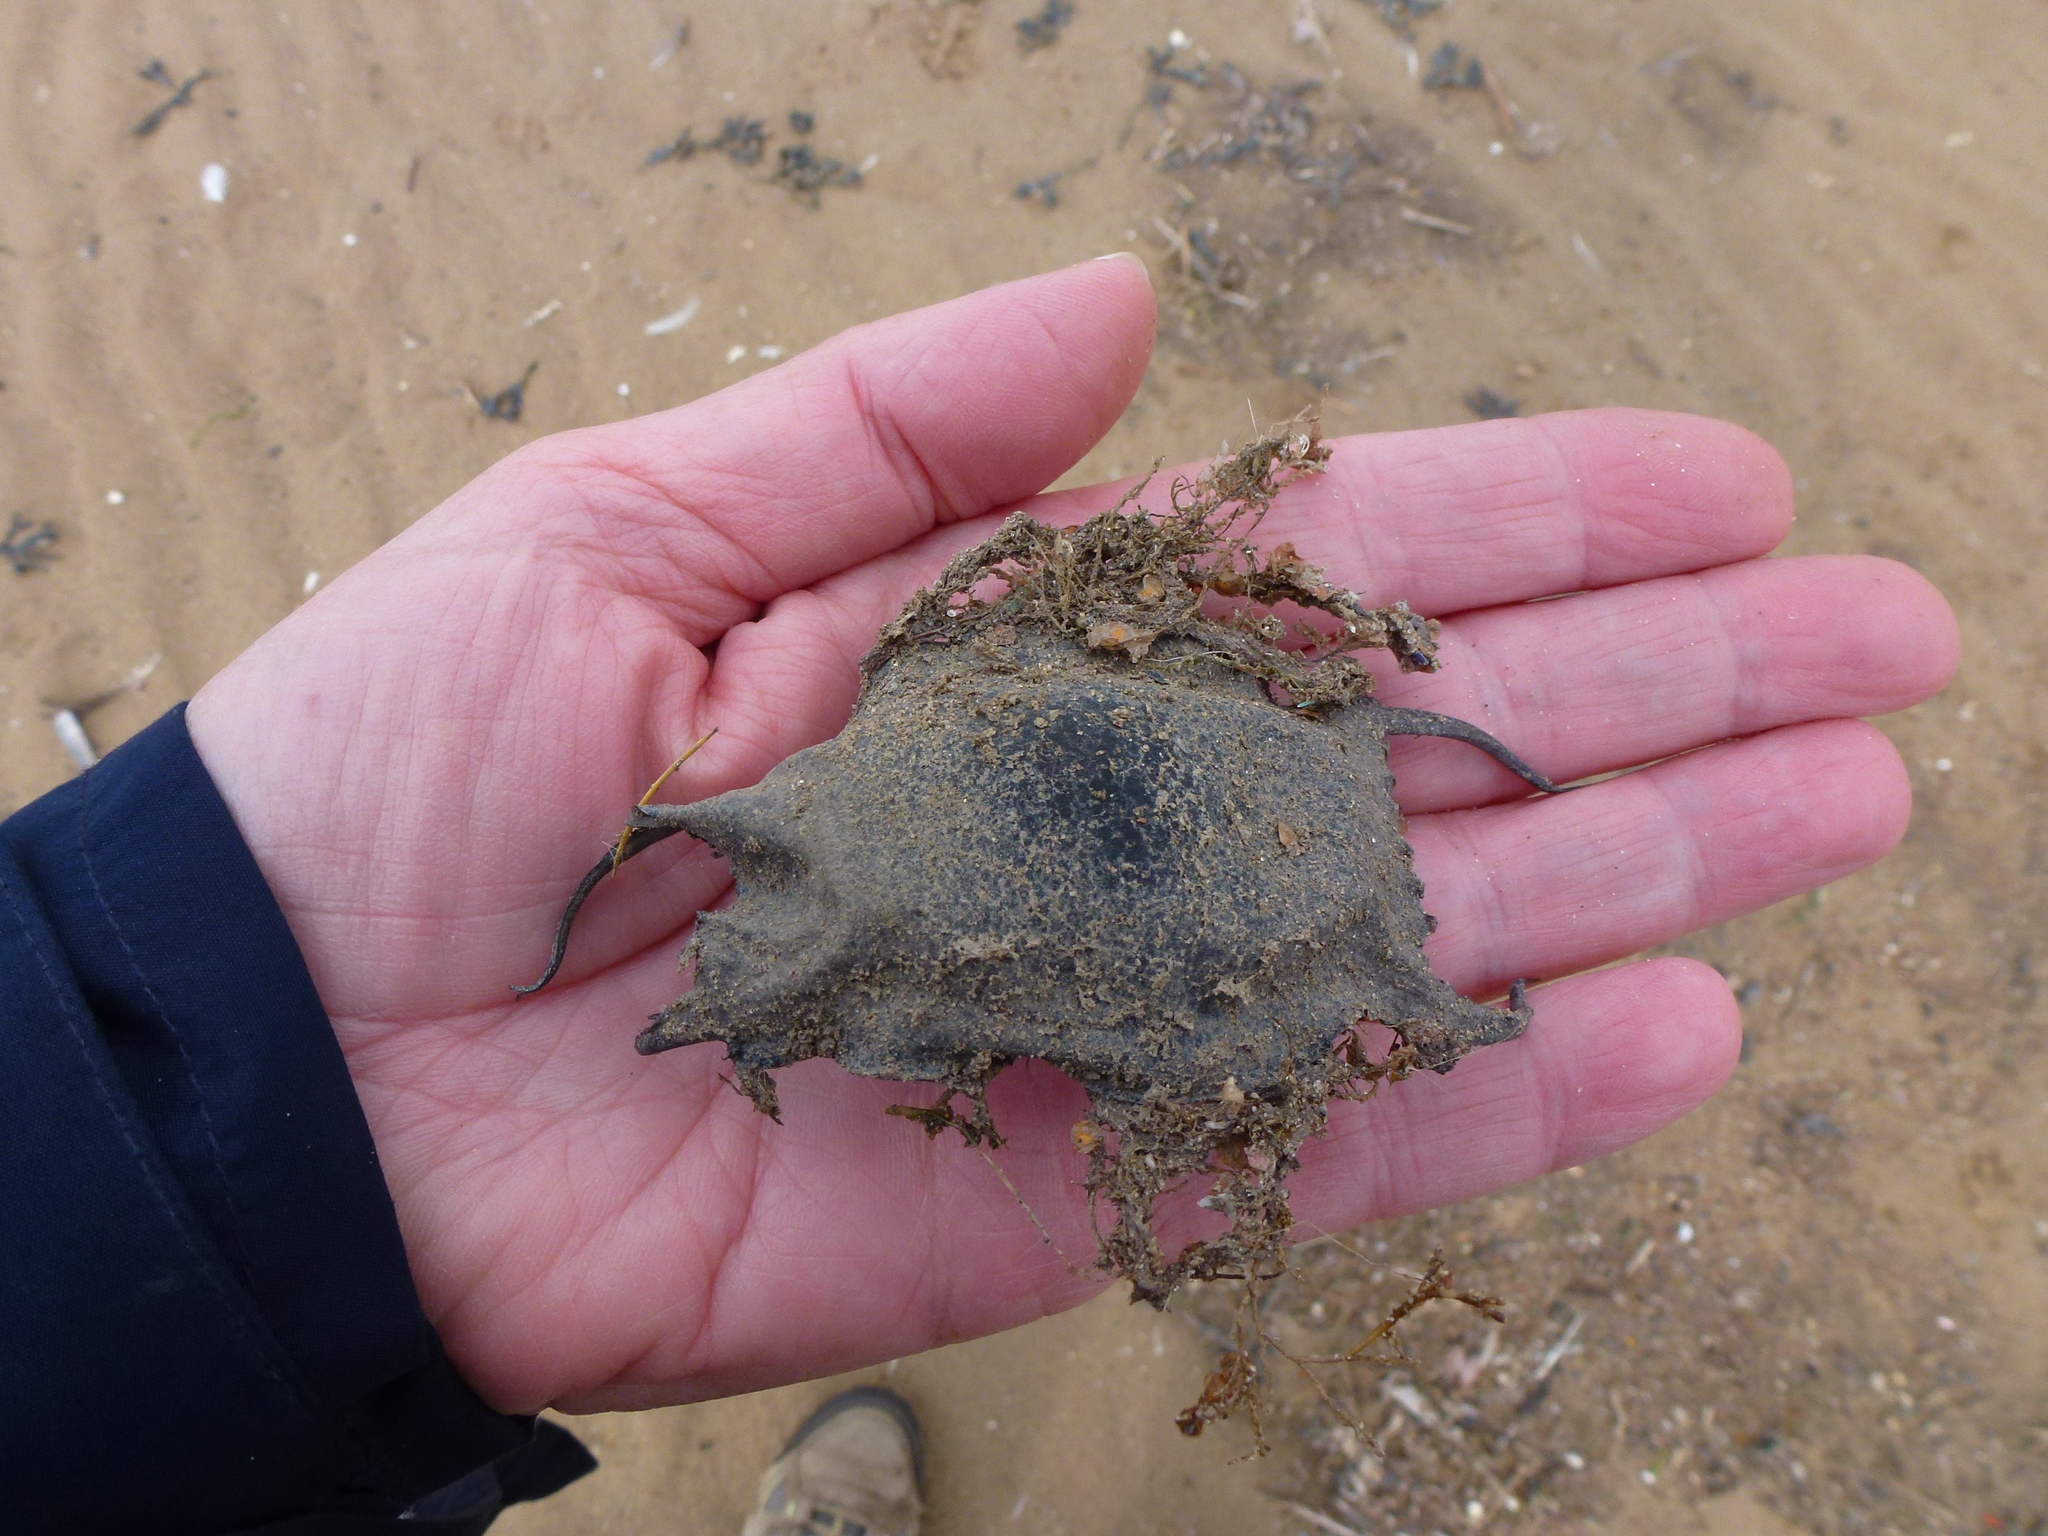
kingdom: Animalia
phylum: Chordata
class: Elasmobranchii
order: Rajiformes
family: Rajidae
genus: Raja
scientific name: Raja undulata
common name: Undulate ray
